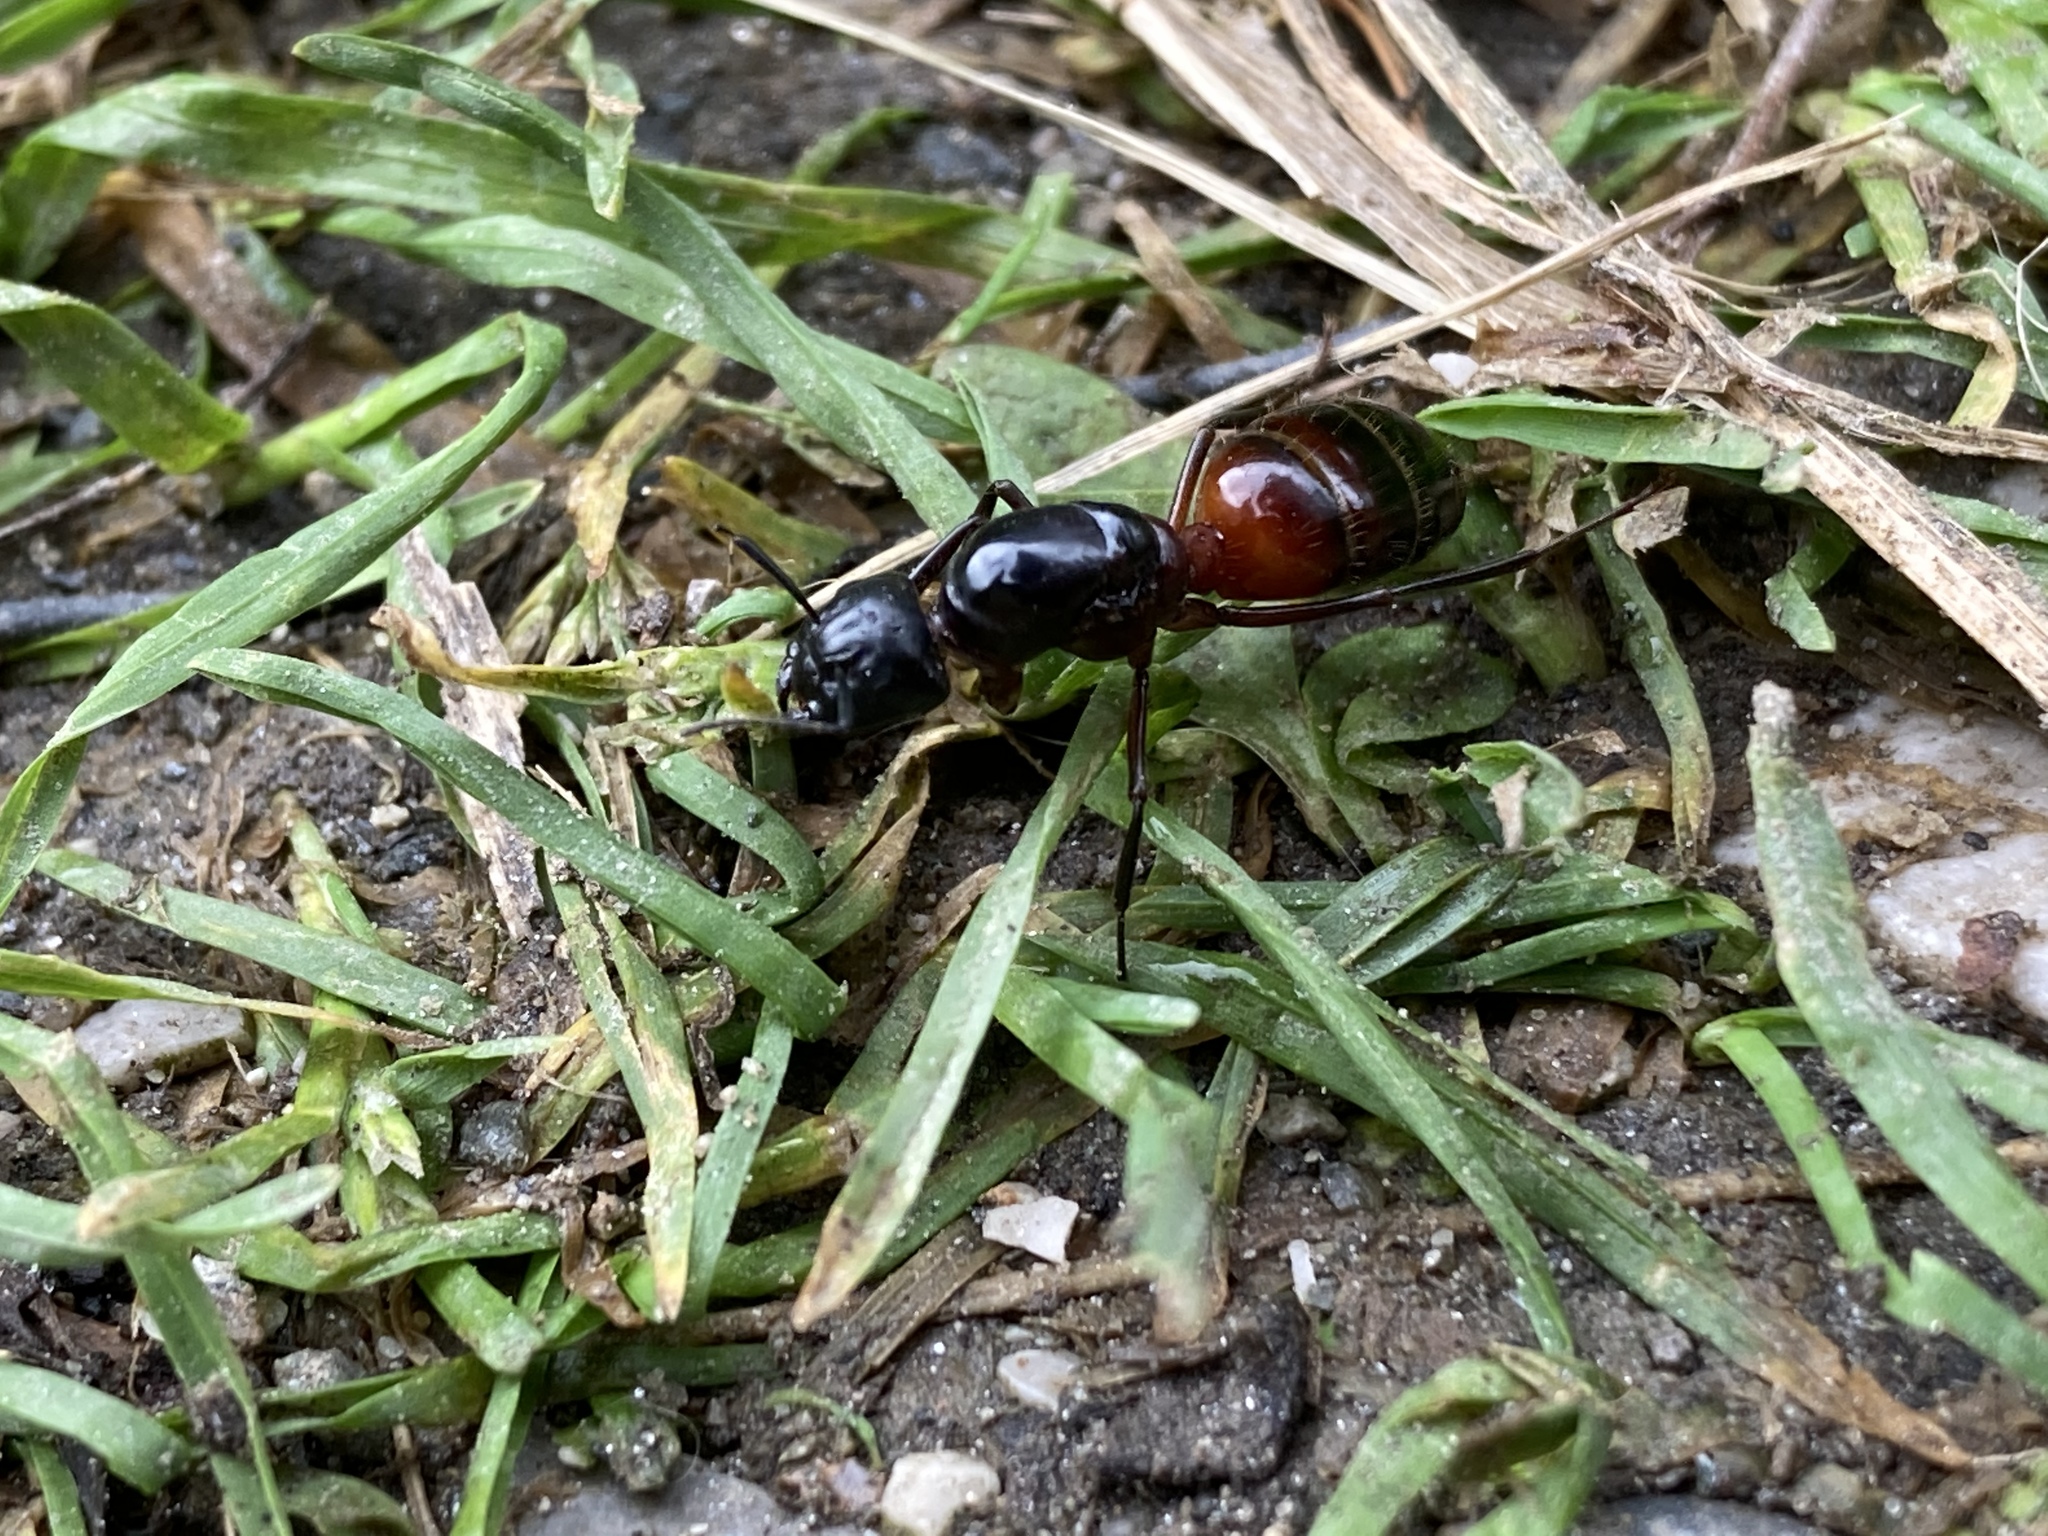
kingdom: Animalia
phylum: Arthropoda
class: Insecta
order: Hymenoptera
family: Formicidae
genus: Camponotus
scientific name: Camponotus ligniperdus
